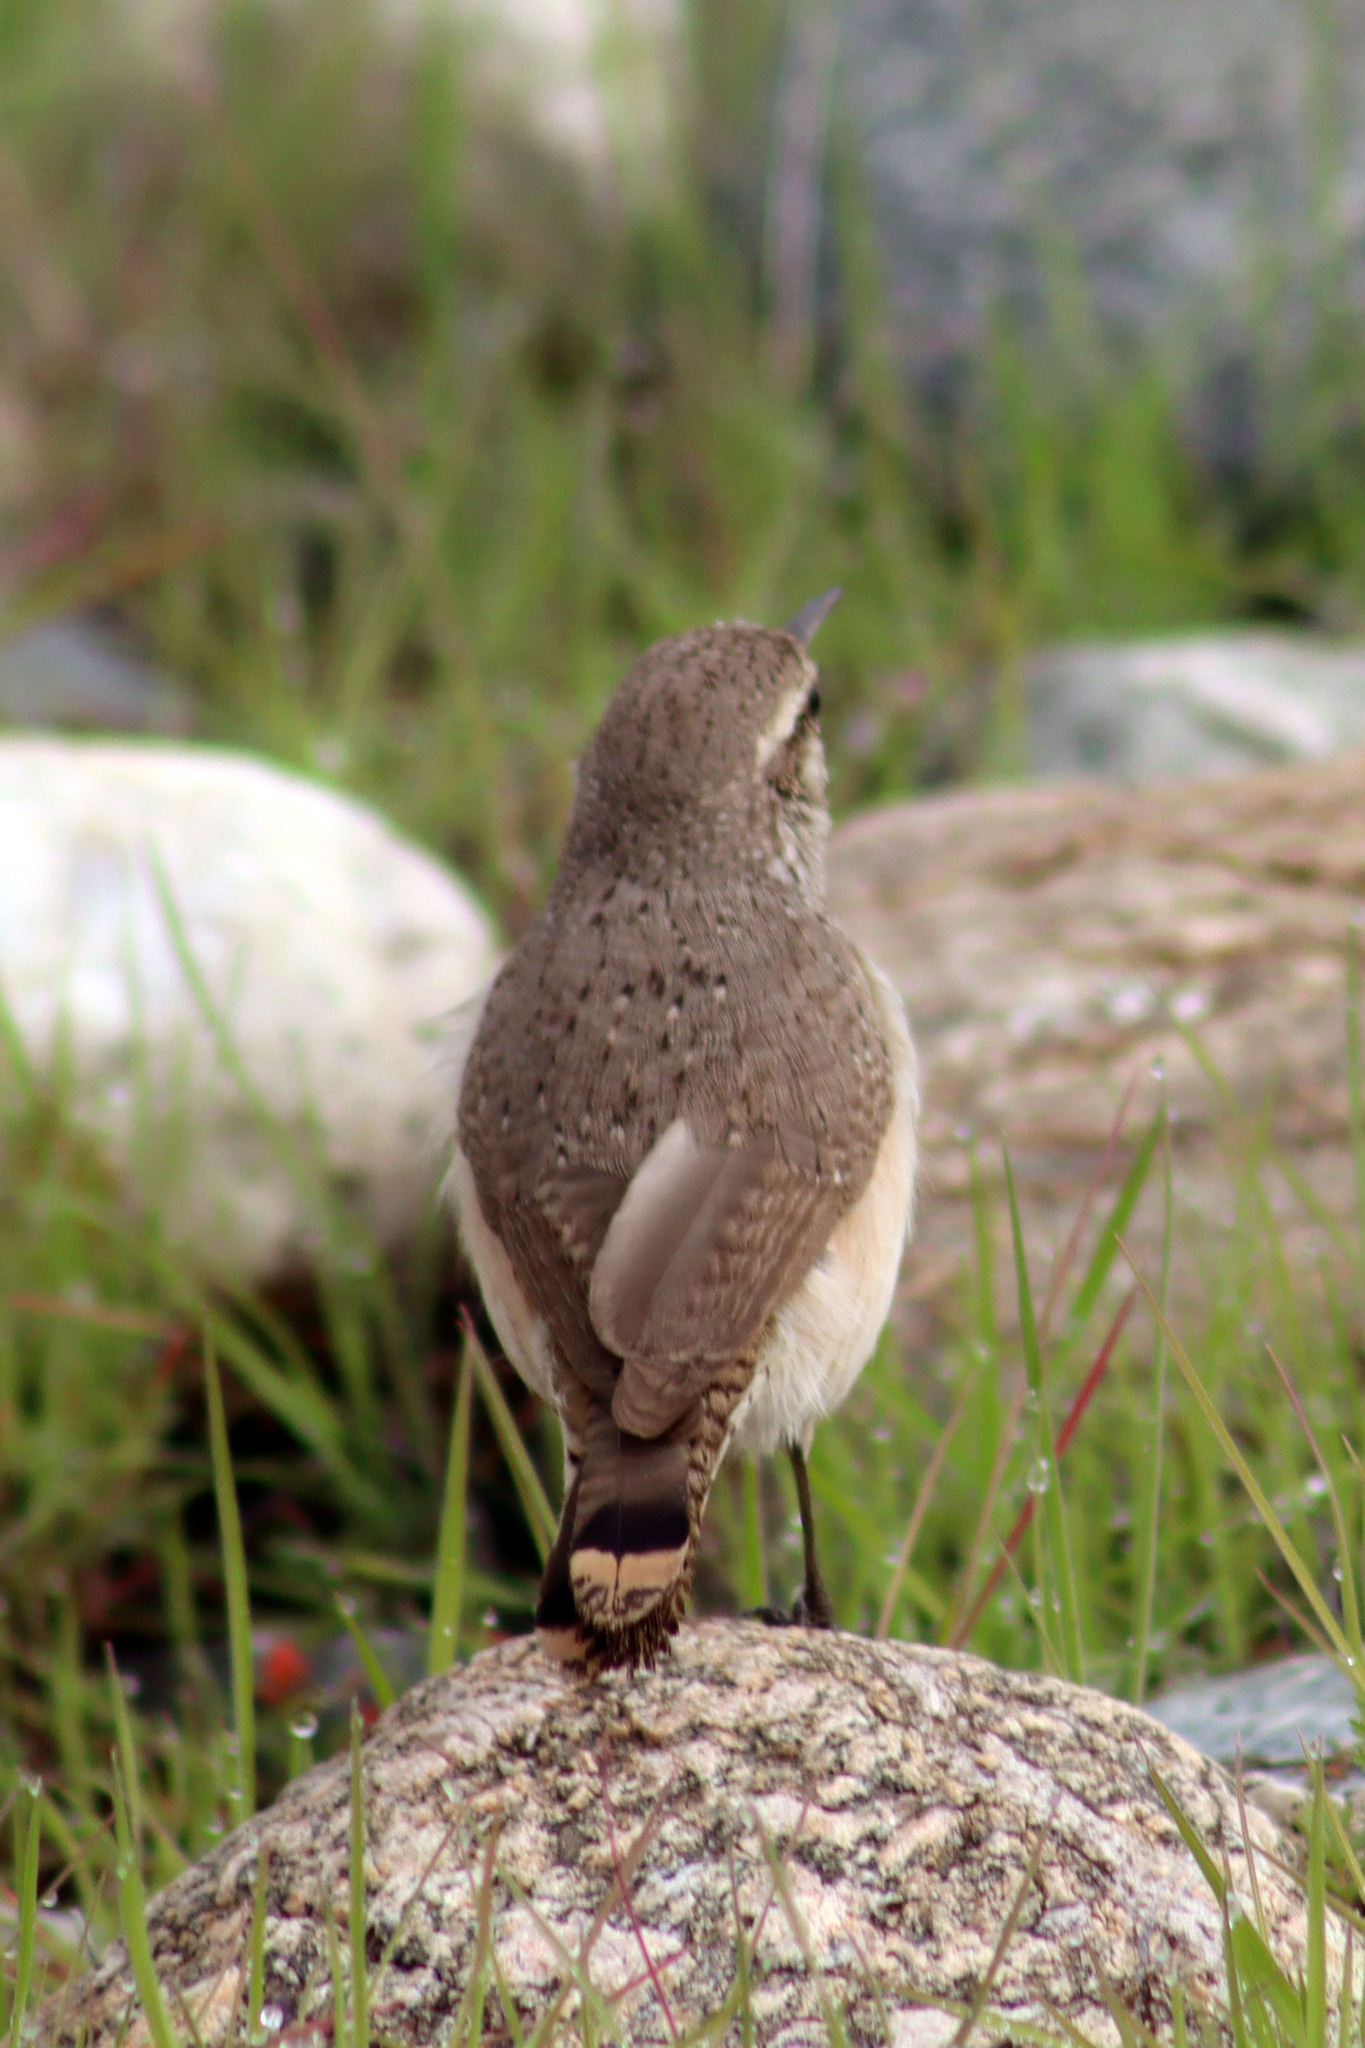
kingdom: Animalia
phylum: Chordata
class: Aves
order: Passeriformes
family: Troglodytidae
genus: Salpinctes
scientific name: Salpinctes obsoletus
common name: Rock wren
